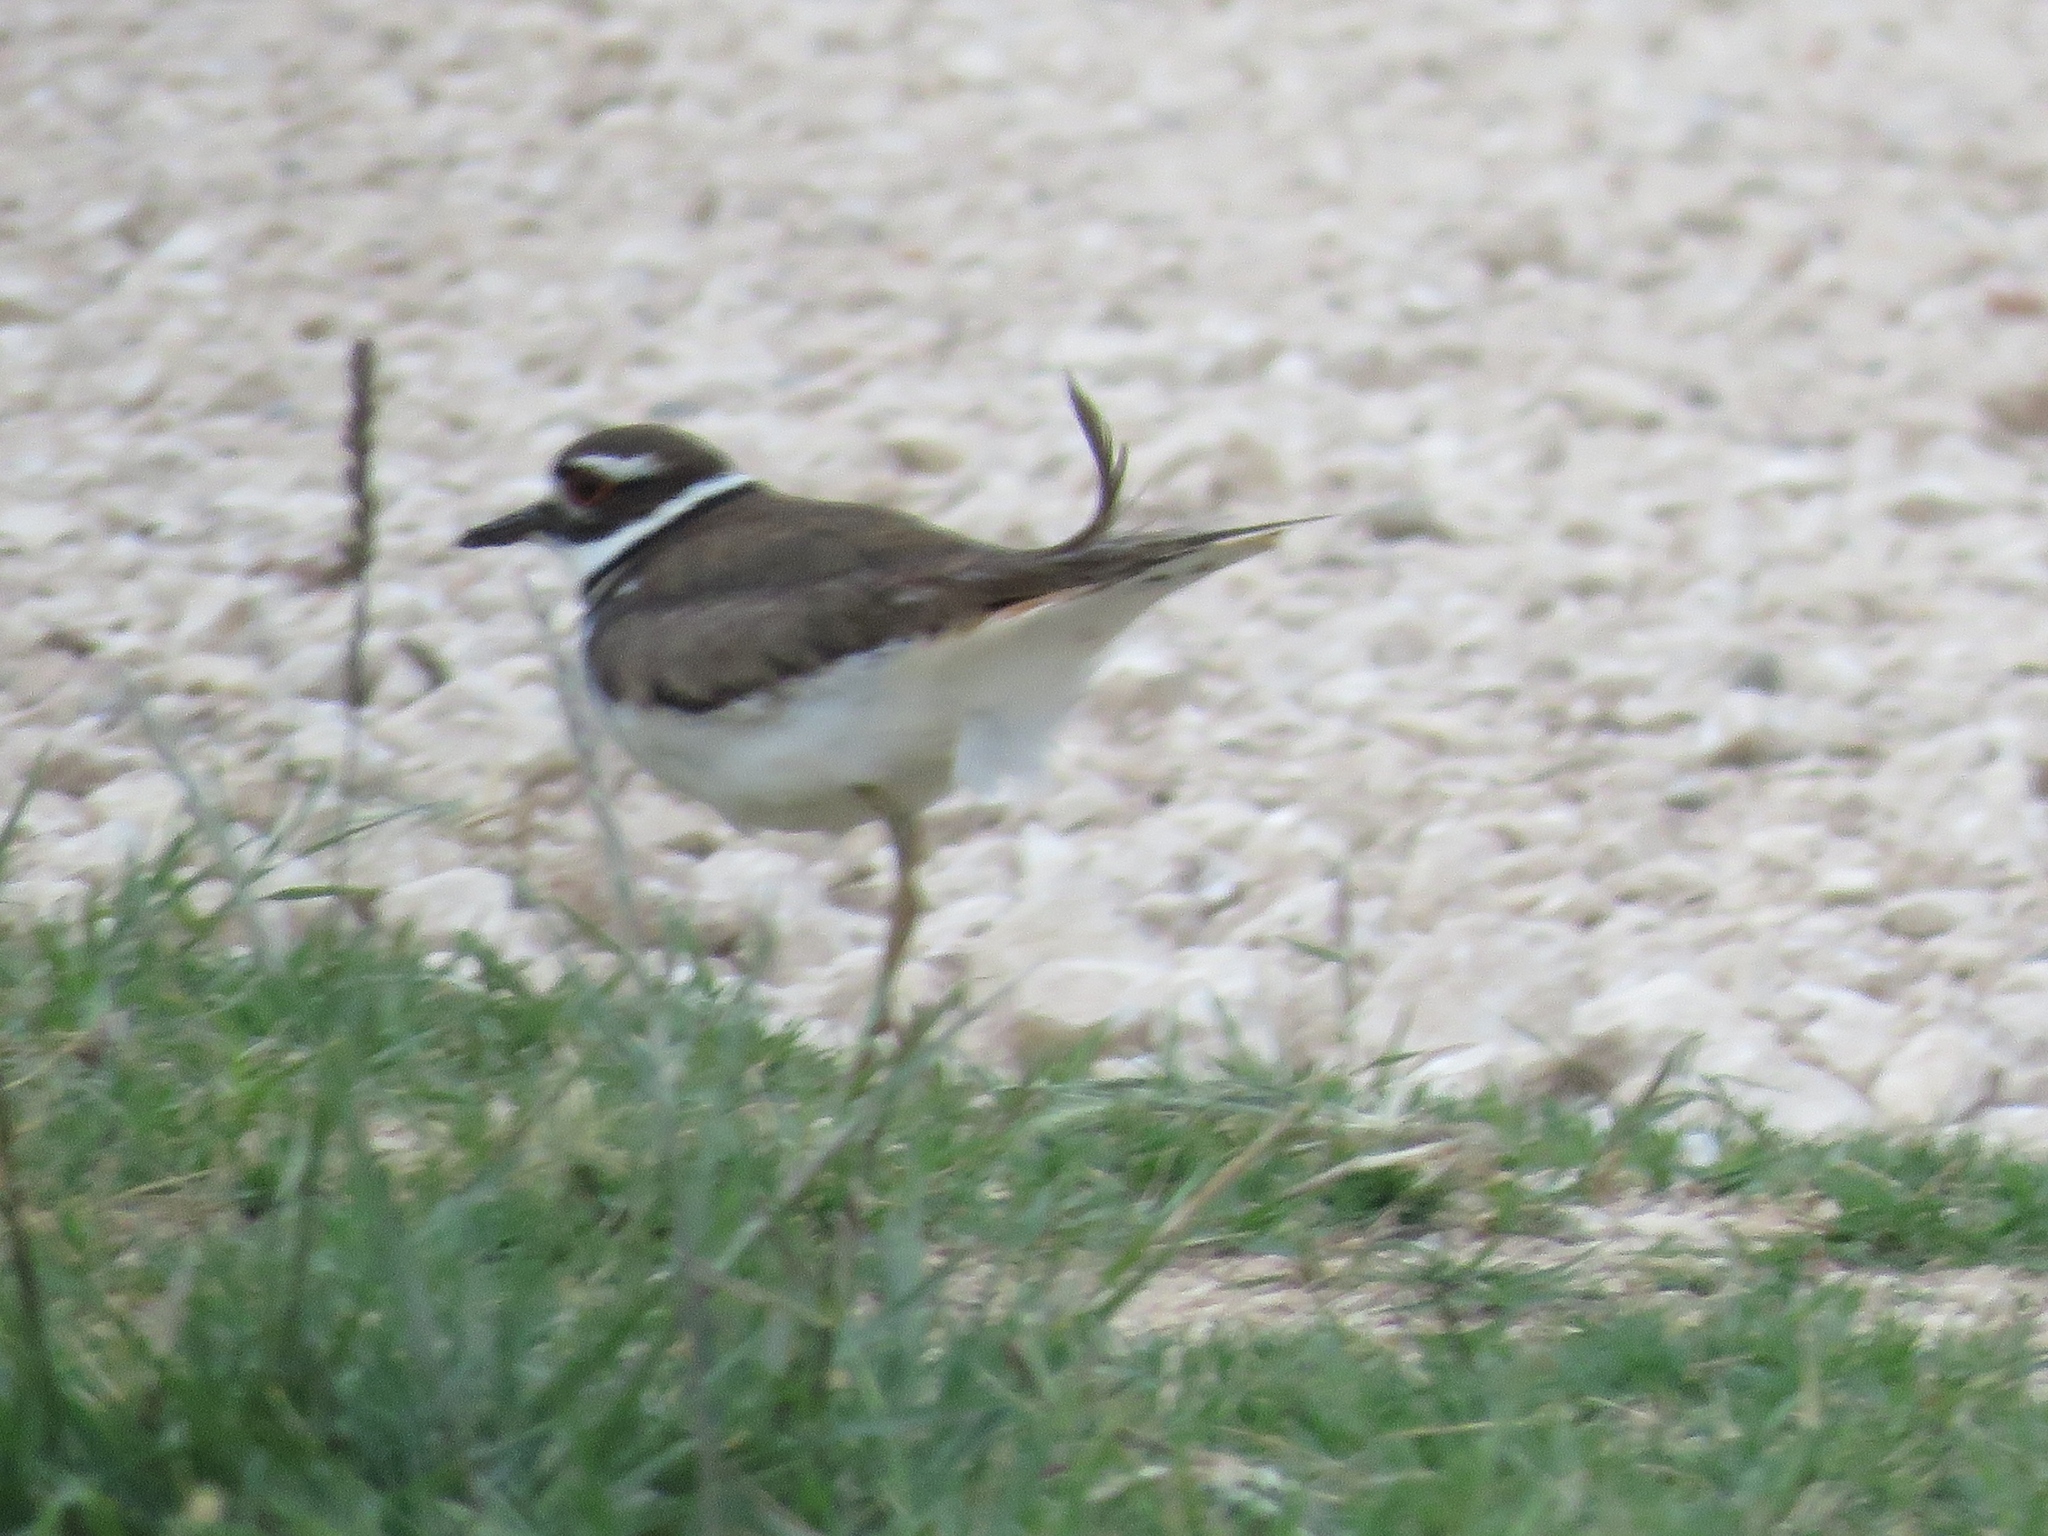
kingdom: Animalia
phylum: Chordata
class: Aves
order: Charadriiformes
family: Charadriidae
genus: Charadrius
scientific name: Charadrius vociferus
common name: Killdeer
